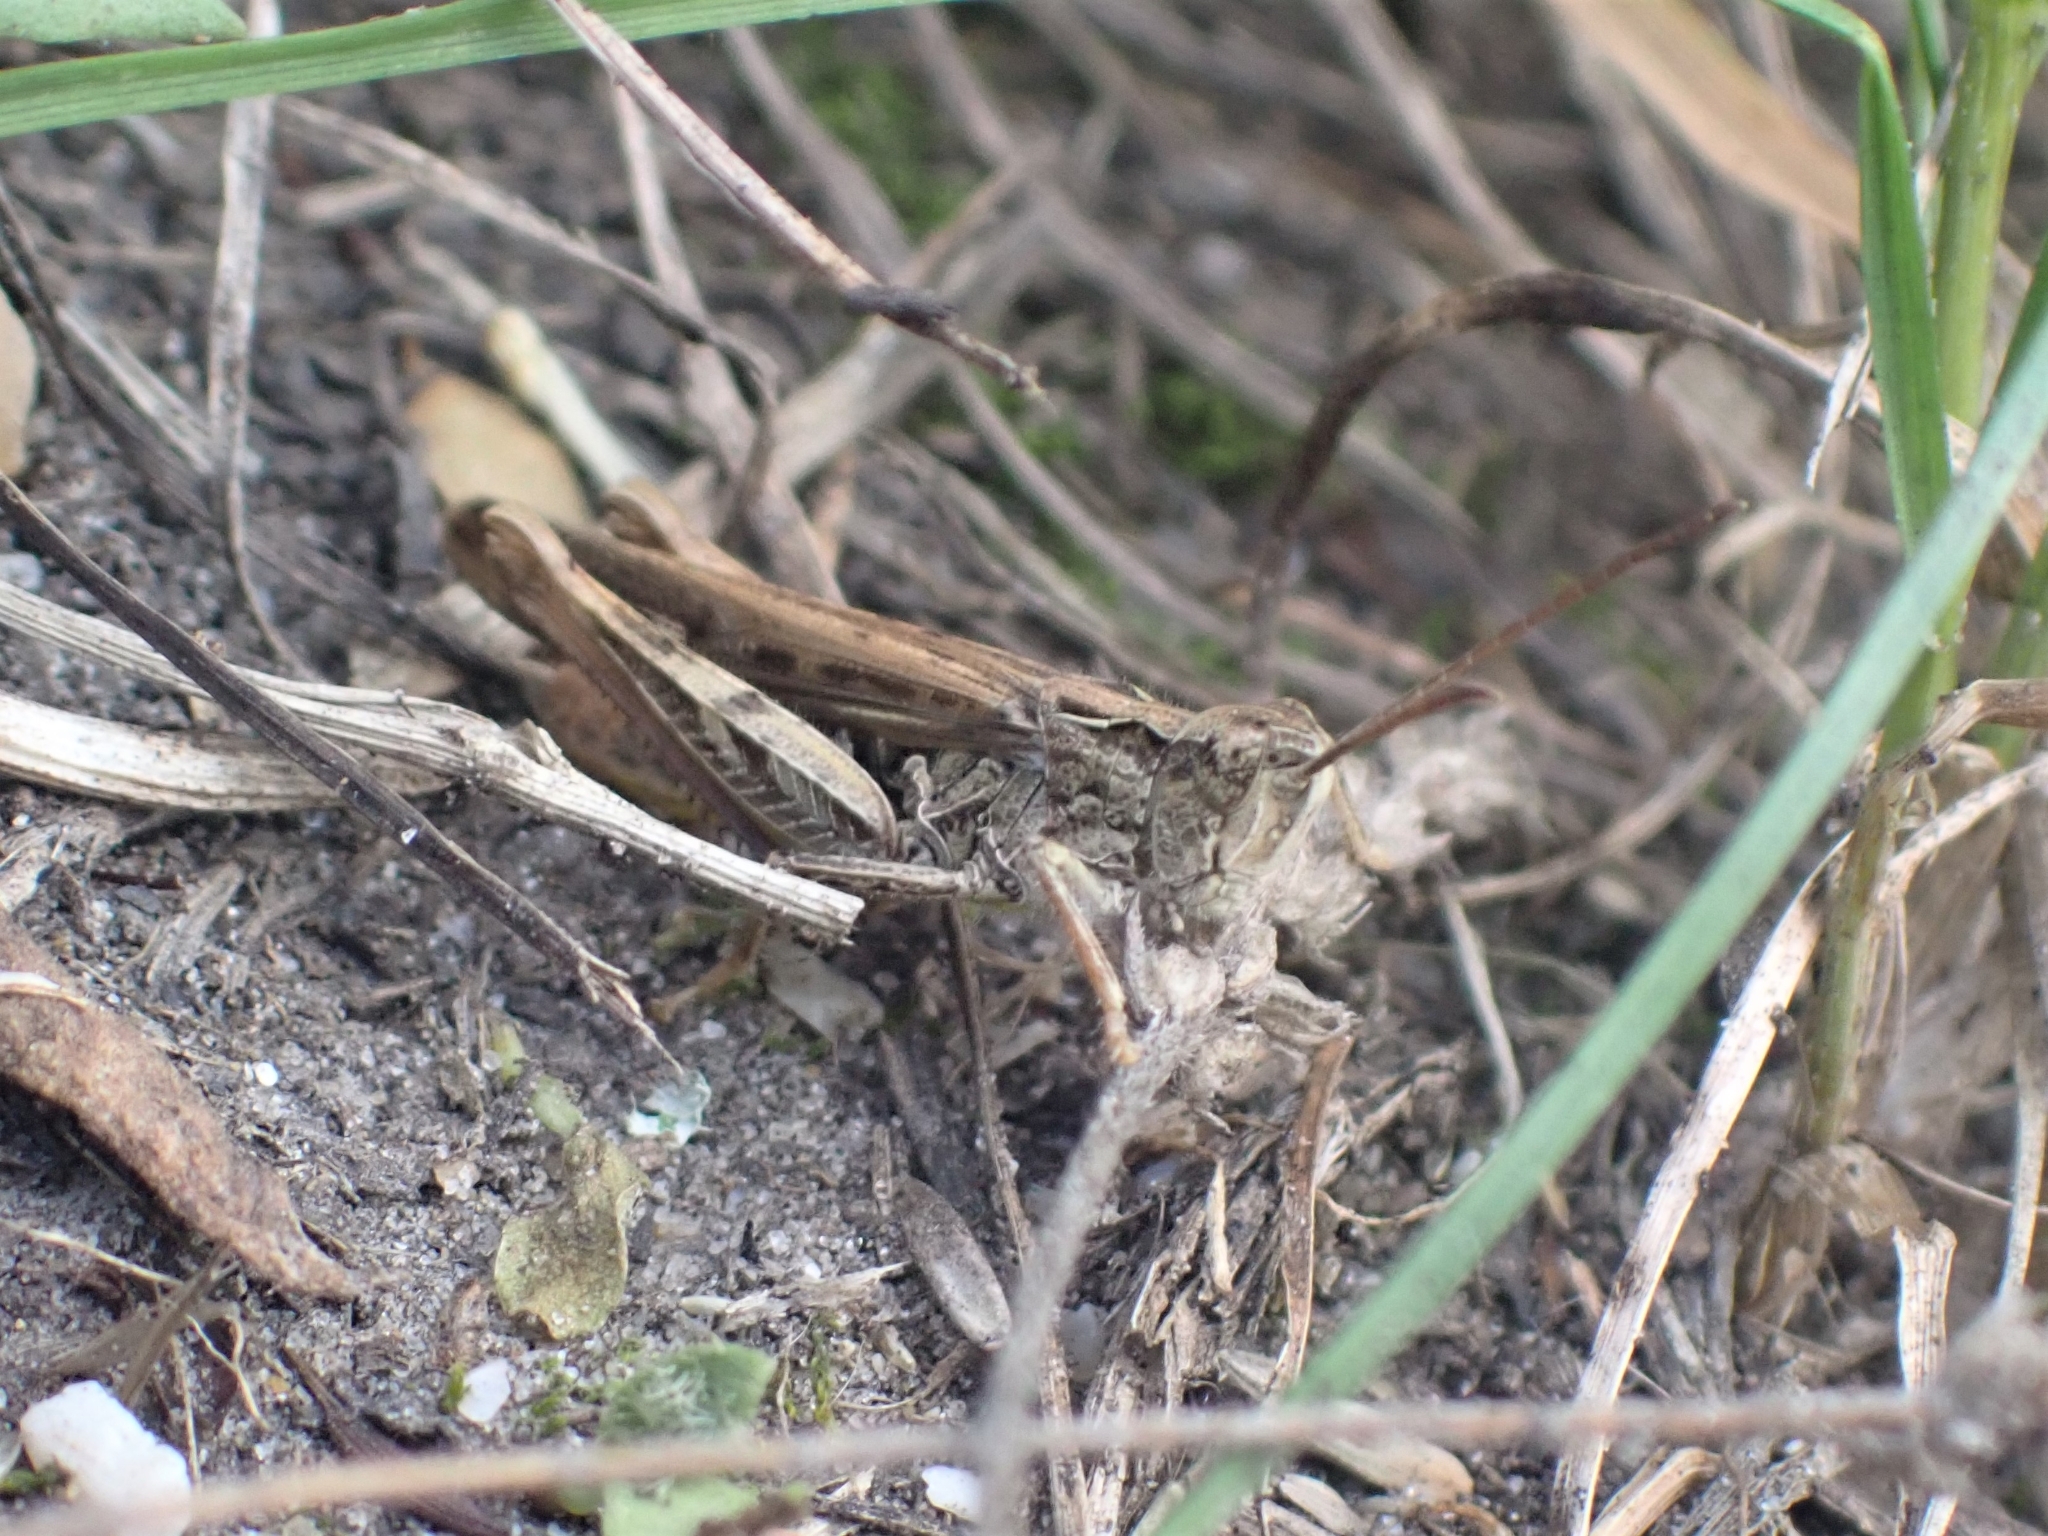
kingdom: Animalia
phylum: Arthropoda
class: Insecta
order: Orthoptera
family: Acrididae
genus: Chorthippus
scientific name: Chorthippus brunneus
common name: Field grasshopper
